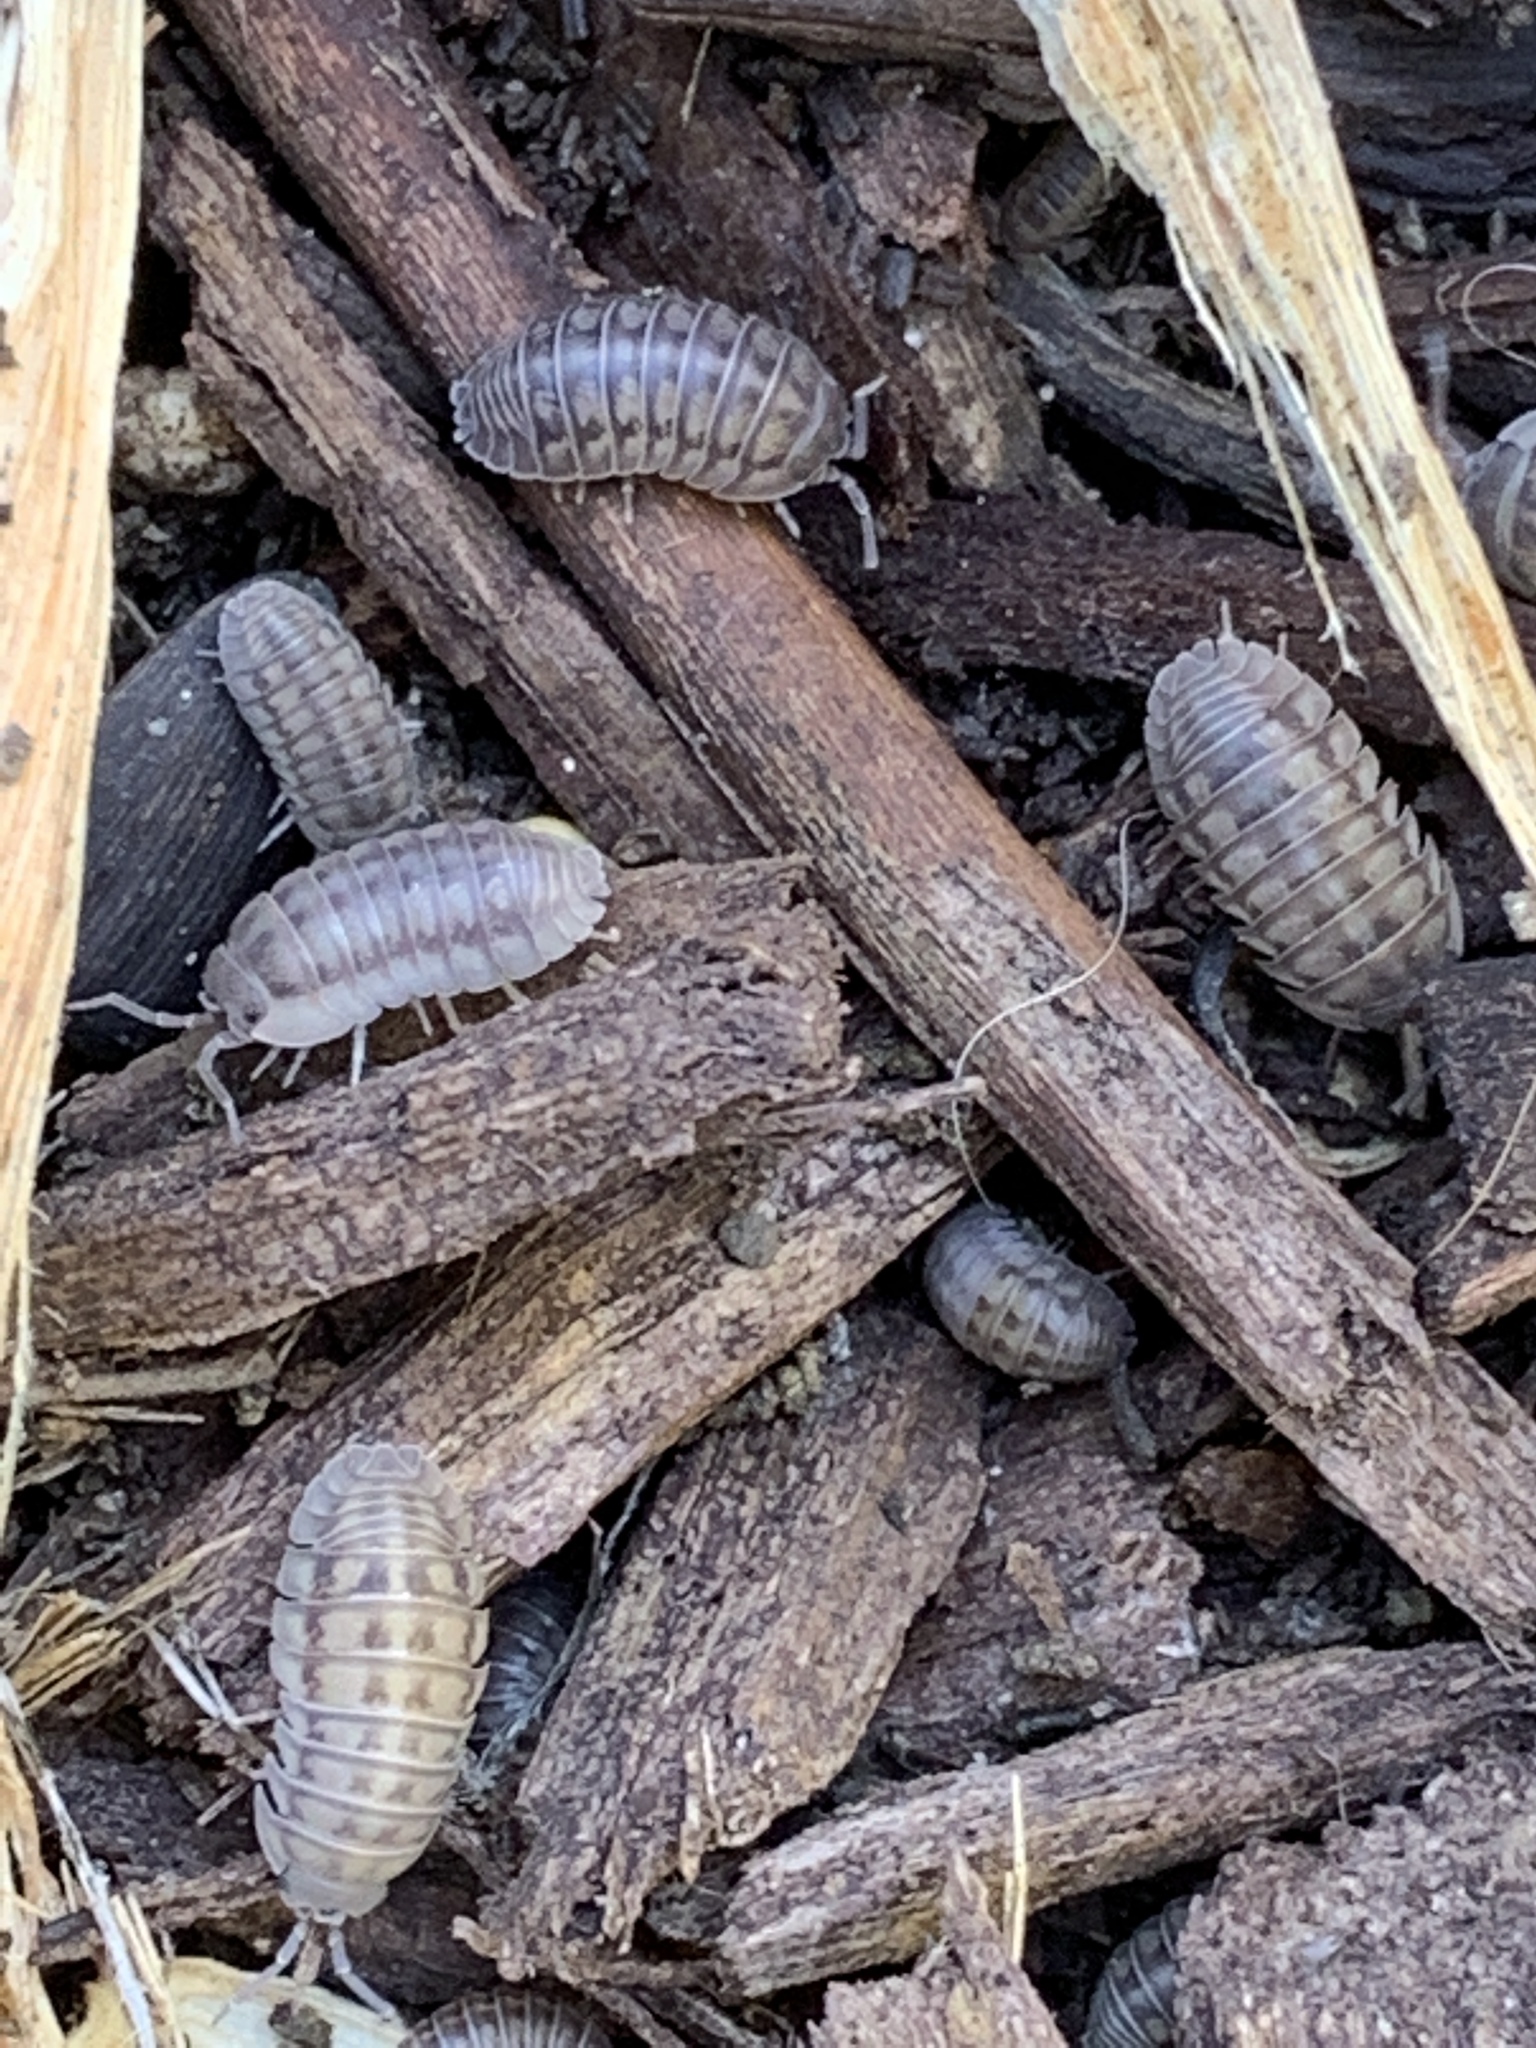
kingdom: Animalia
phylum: Arthropoda
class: Malacostraca
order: Isopoda
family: Armadillidiidae
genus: Armadillidium
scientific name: Armadillidium nasatum
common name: Isopod
